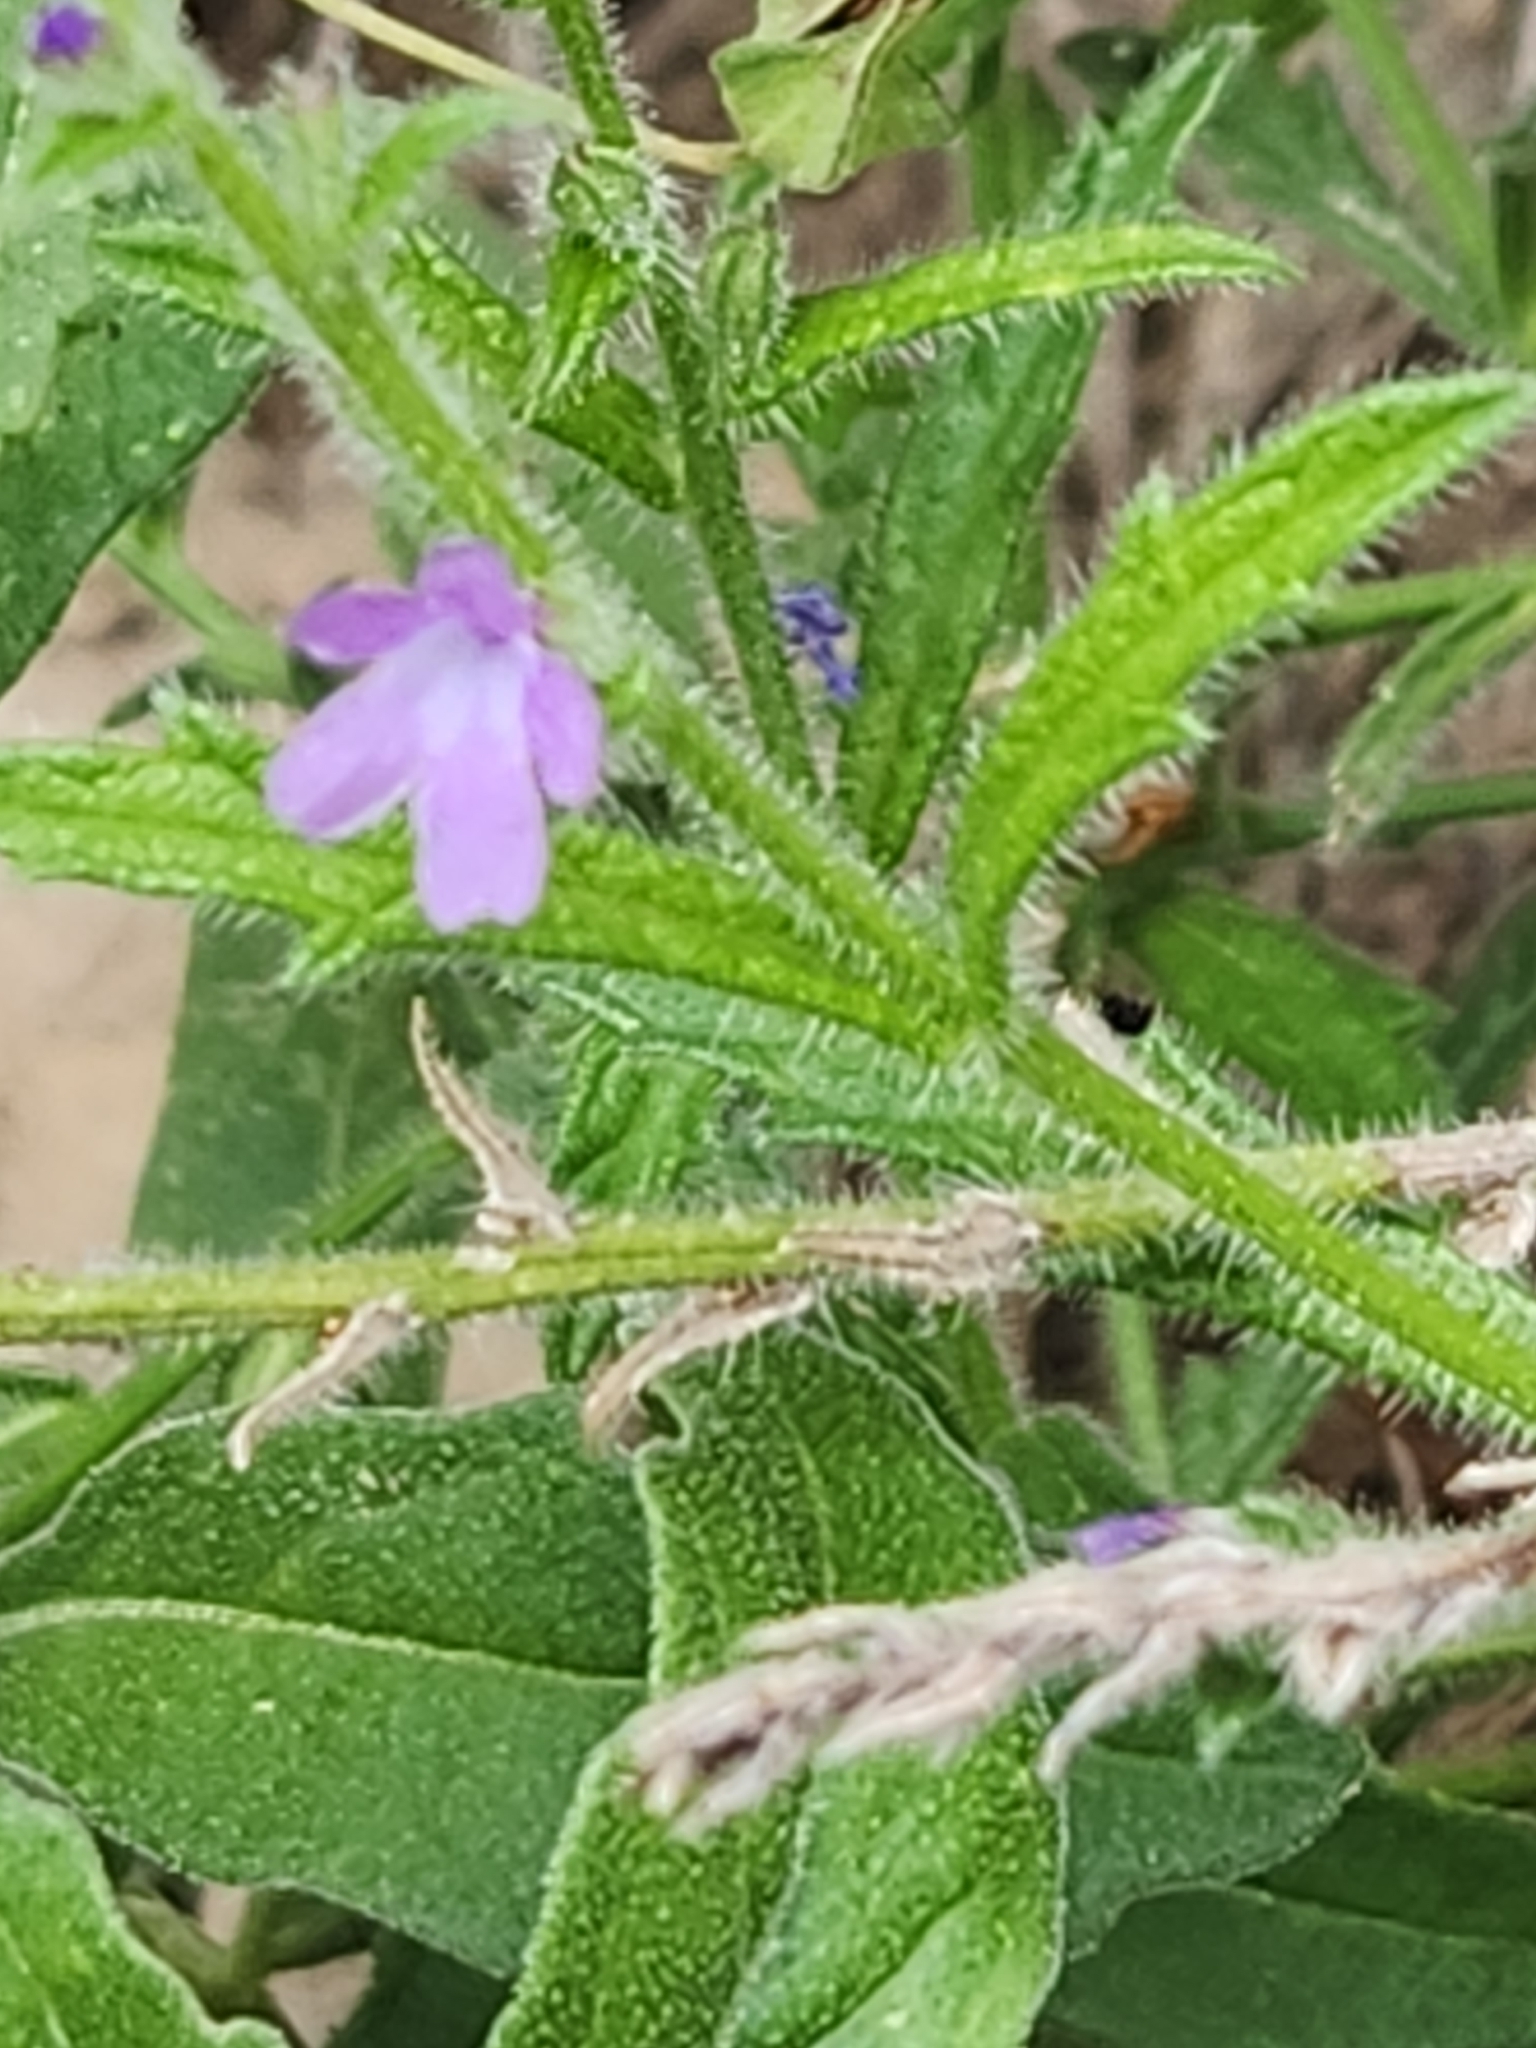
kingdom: Plantae
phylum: Tracheophyta
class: Magnoliopsida
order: Lamiales
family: Verbenaceae
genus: Verbena
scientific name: Verbena canescens
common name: Gray vervain
